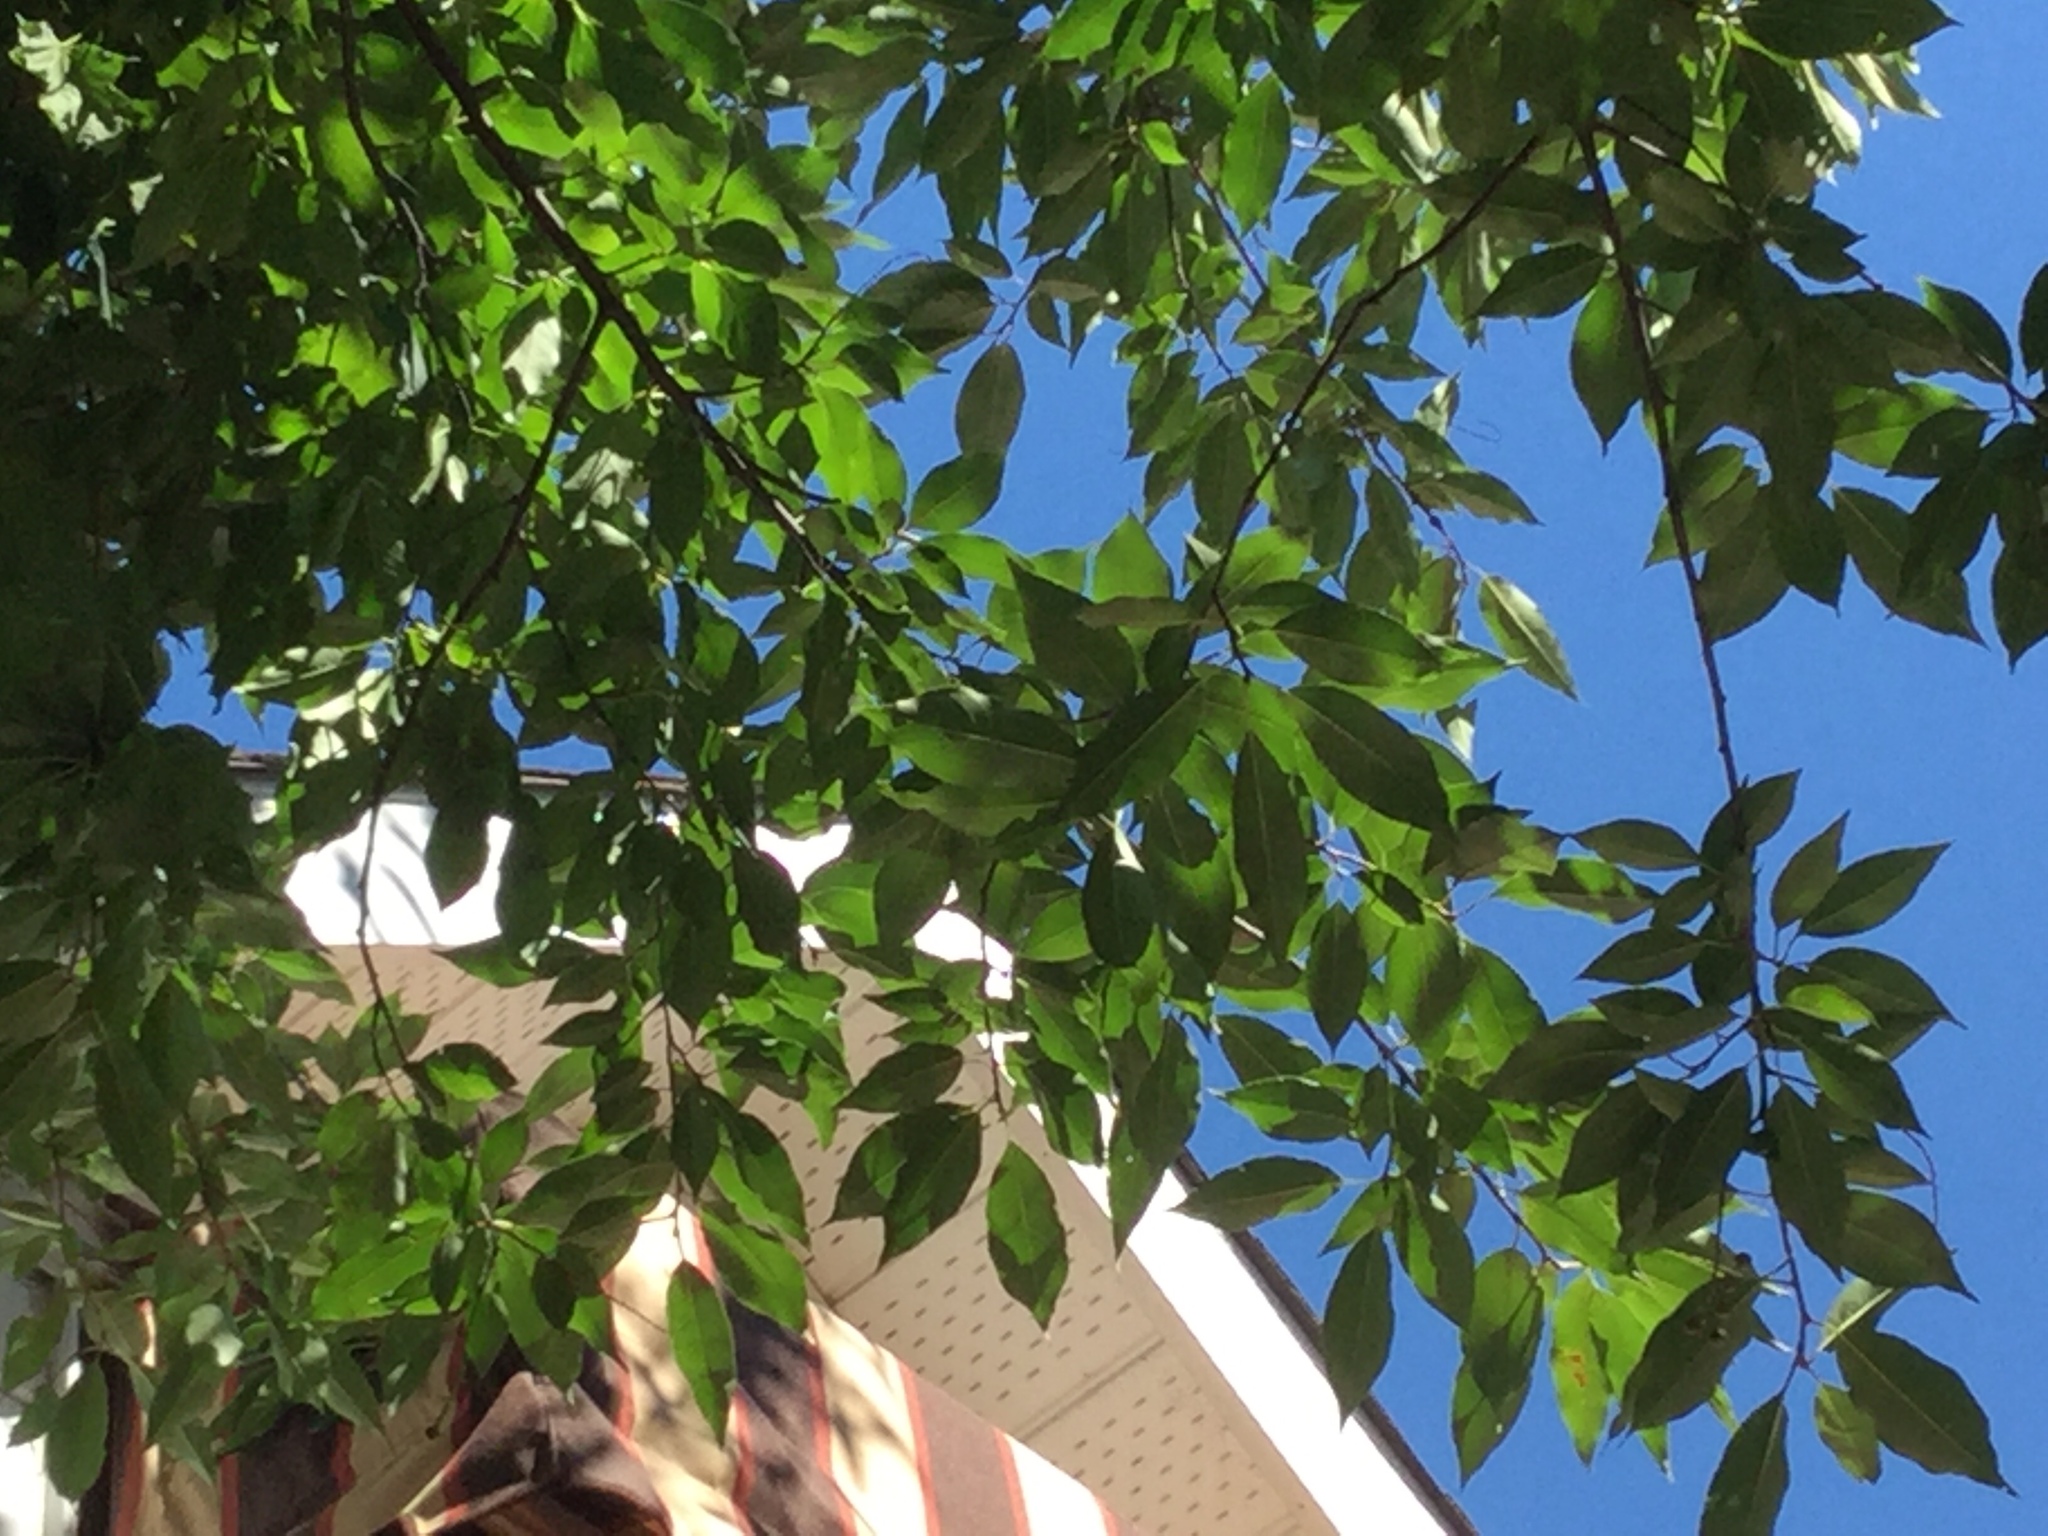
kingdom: Plantae
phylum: Tracheophyta
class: Magnoliopsida
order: Rosales
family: Rosaceae
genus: Prunus
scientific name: Prunus serotina
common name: Black cherry
